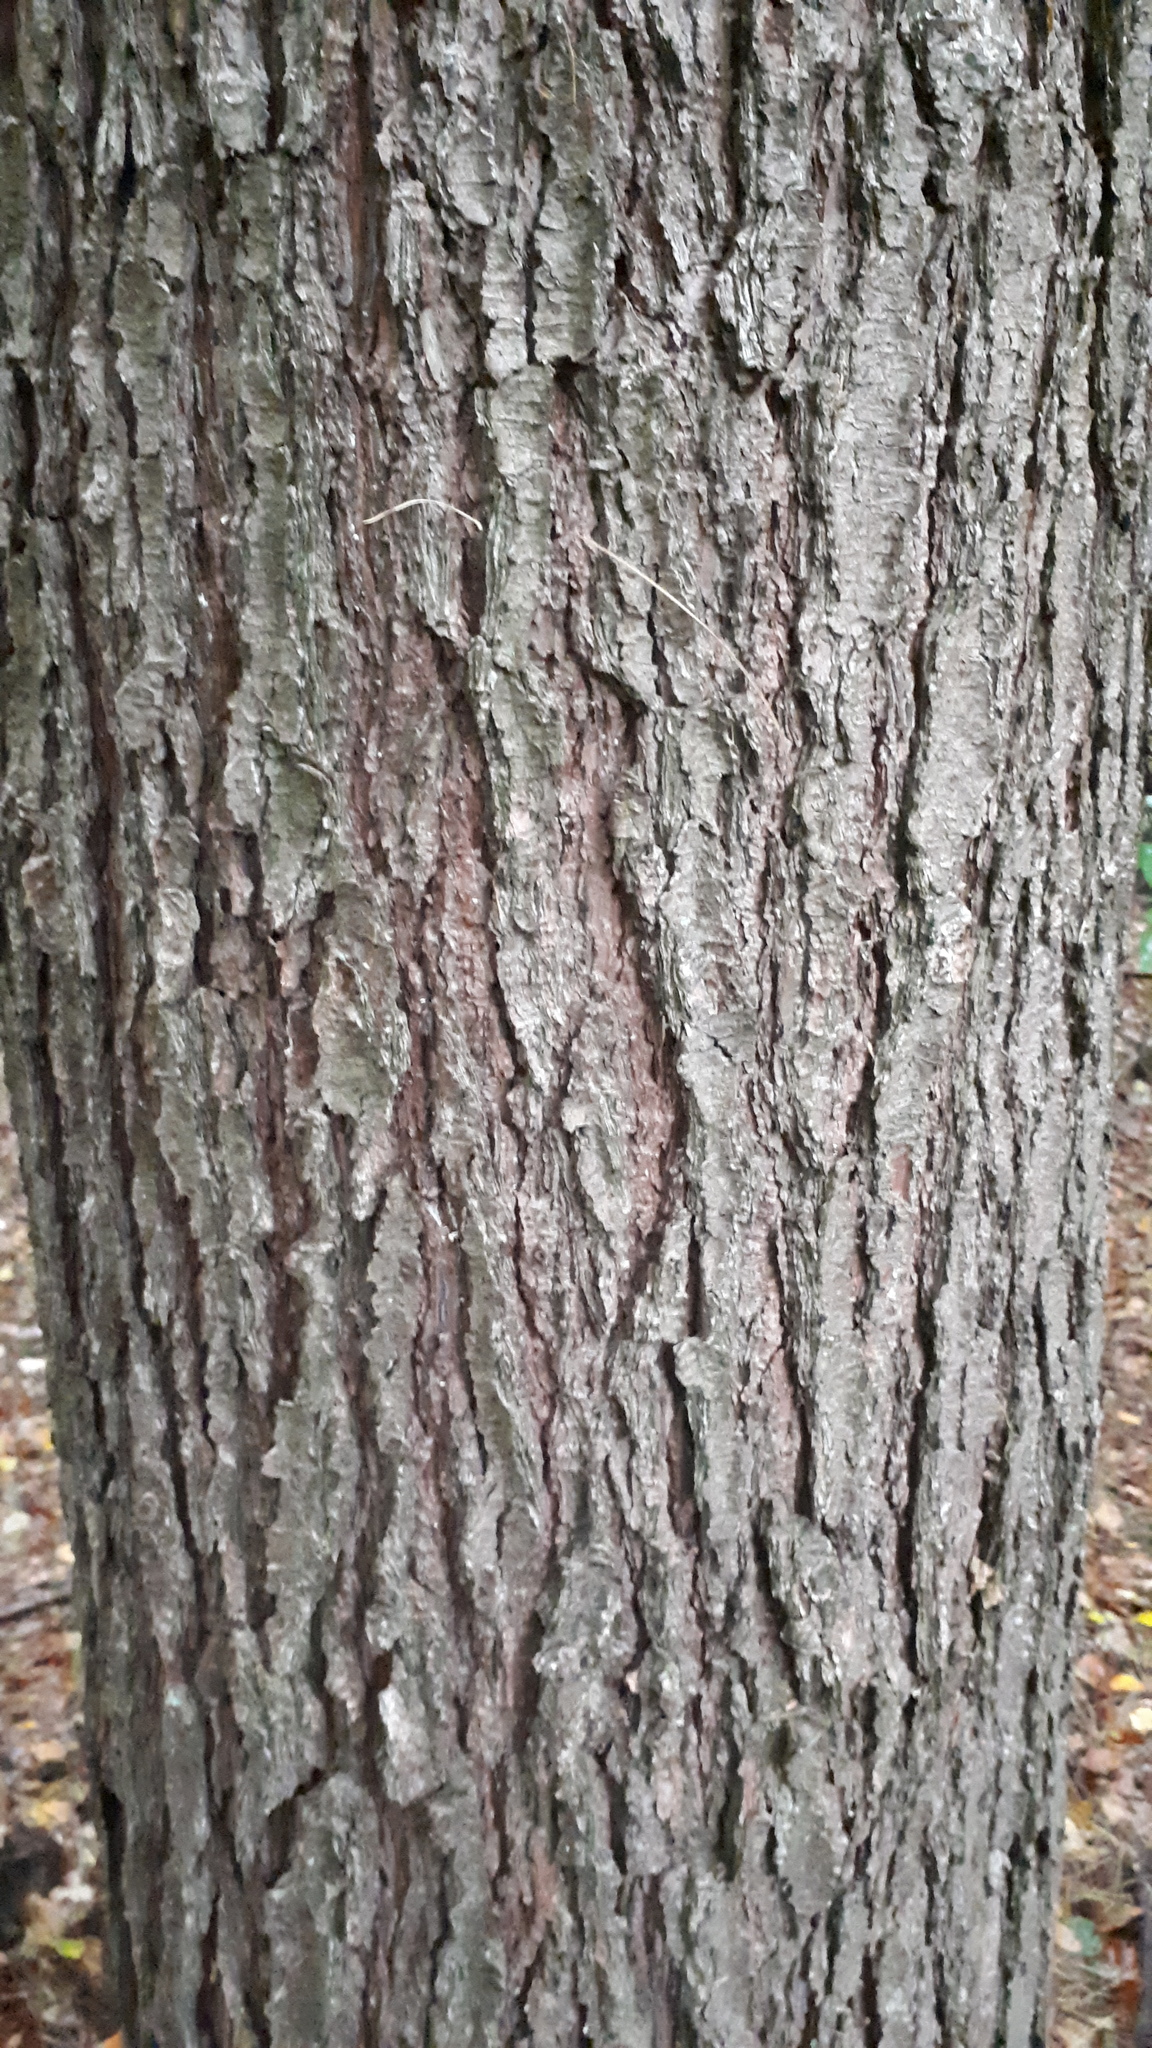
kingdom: Plantae
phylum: Tracheophyta
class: Pinopsida
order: Pinales
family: Pinaceae
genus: Pinus
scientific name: Pinus strobus
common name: Weymouth pine
